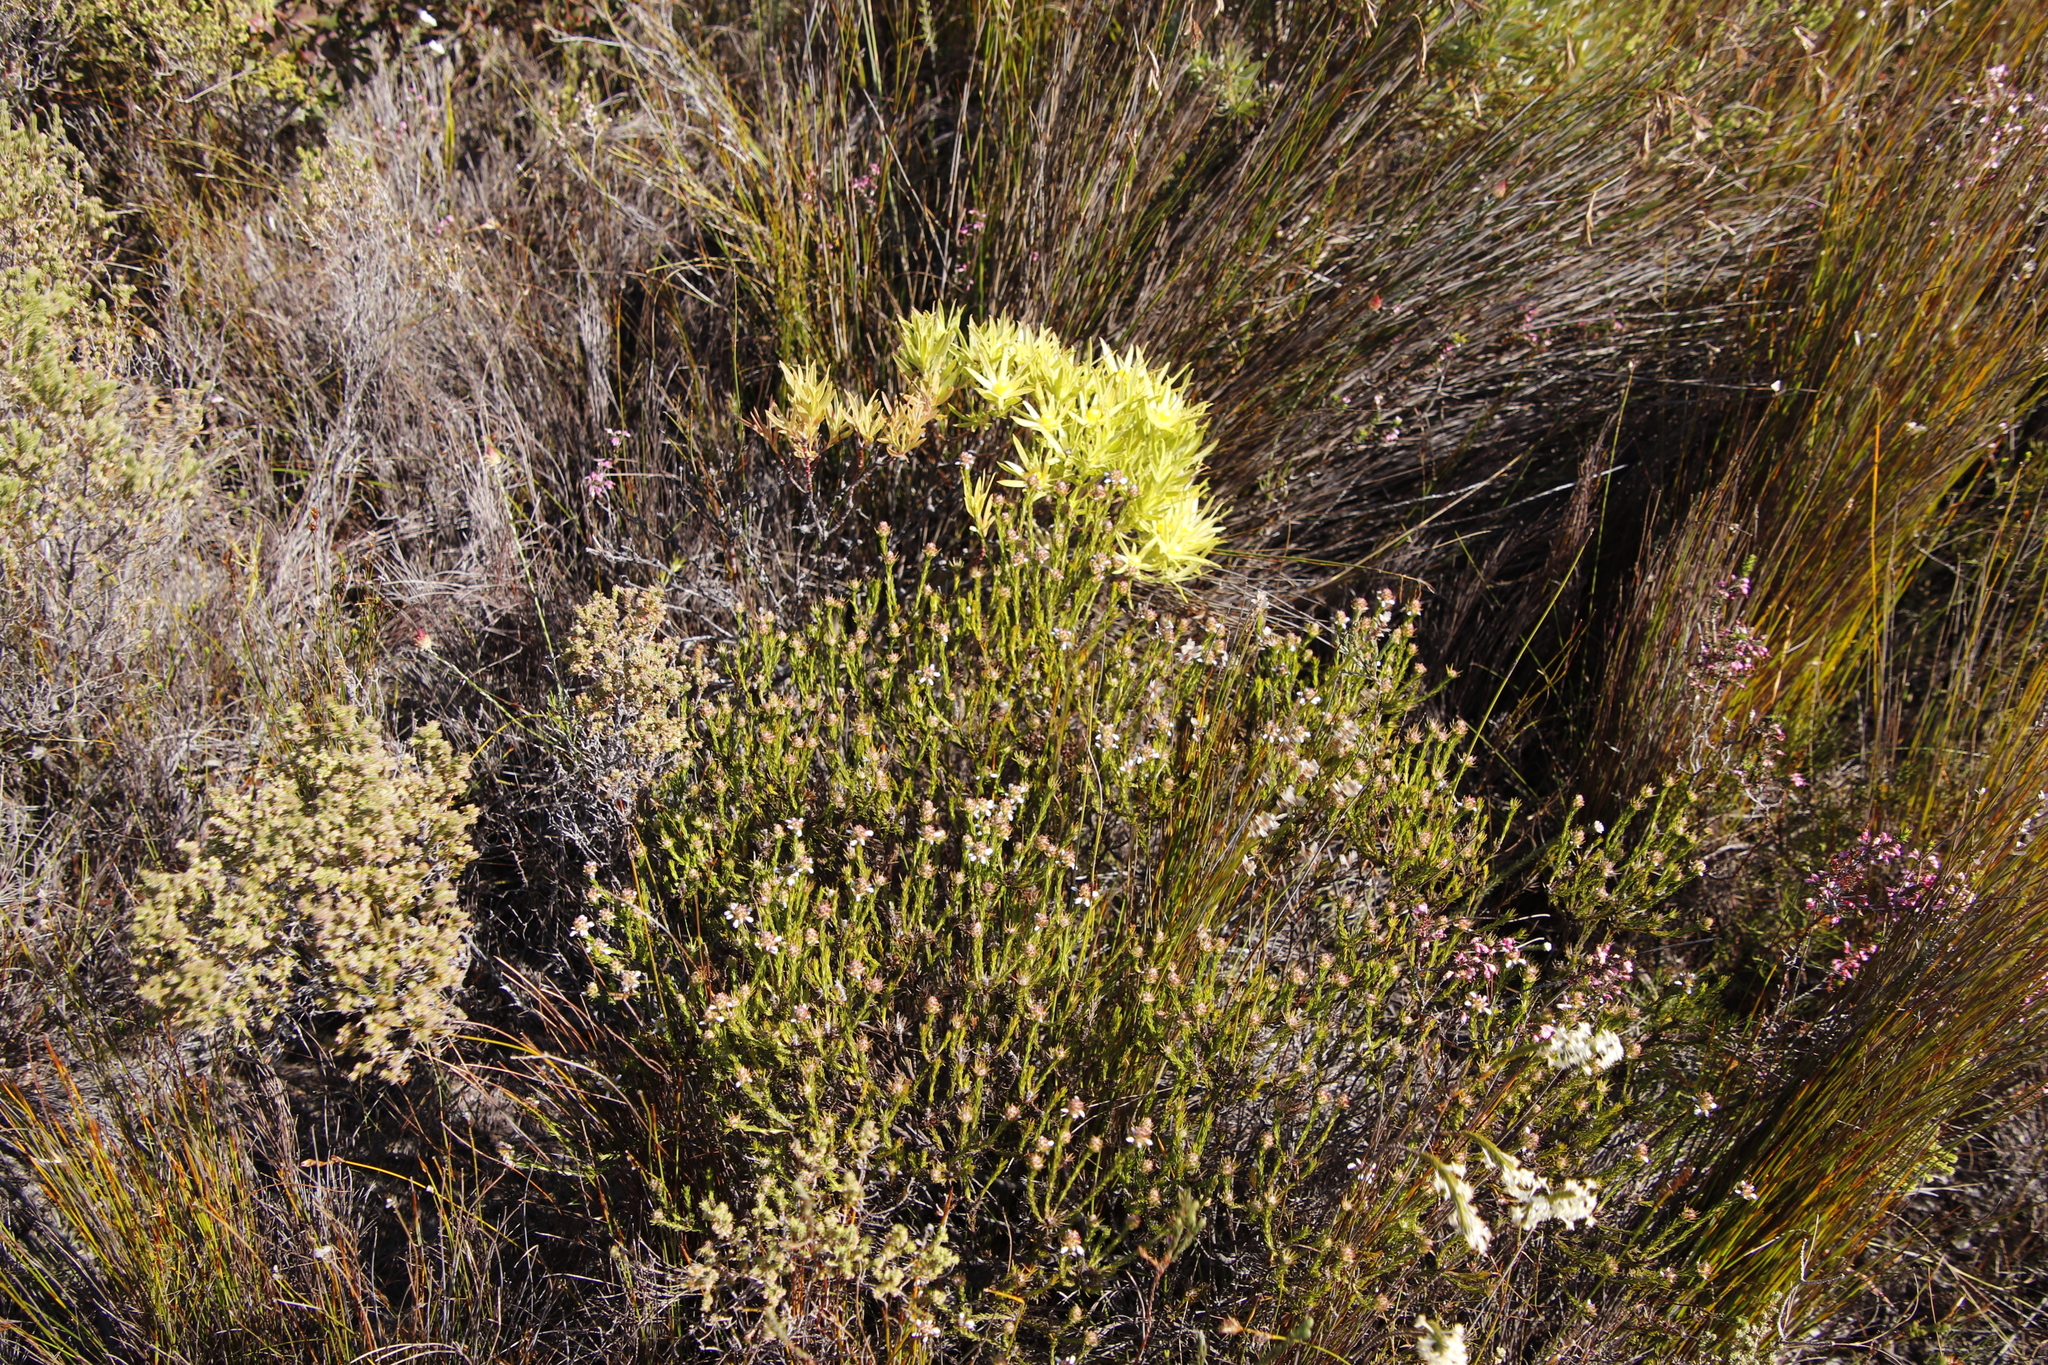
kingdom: Plantae
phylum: Tracheophyta
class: Magnoliopsida
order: Proteales
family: Proteaceae
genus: Leucadendron
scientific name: Leucadendron xanthoconus
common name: Sickle-leaf conebush
